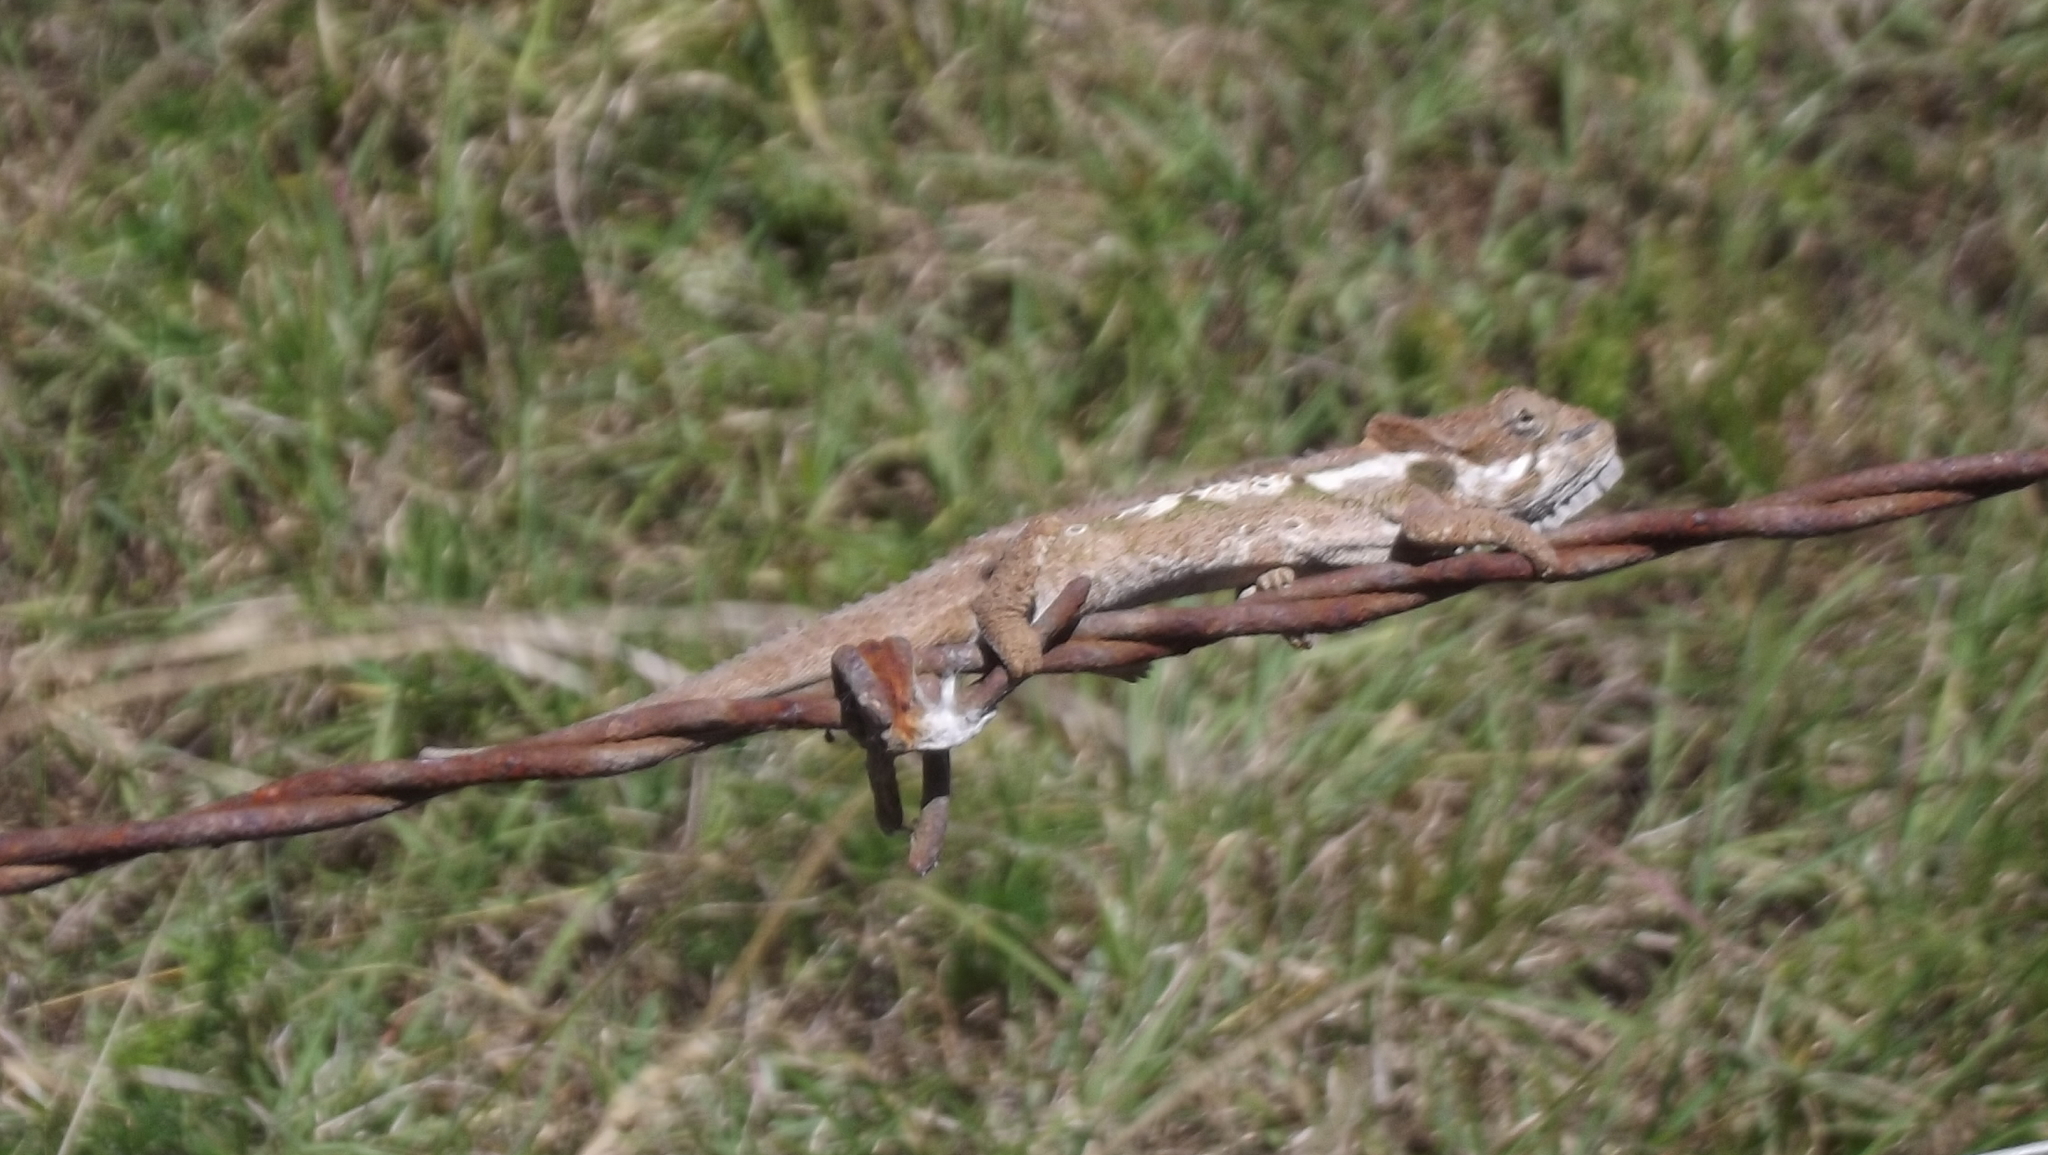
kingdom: Animalia
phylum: Chordata
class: Squamata
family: Chamaeleonidae
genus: Bradypodion
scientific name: Bradypodion ventrale
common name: Eastern cape dwarf chameleon
